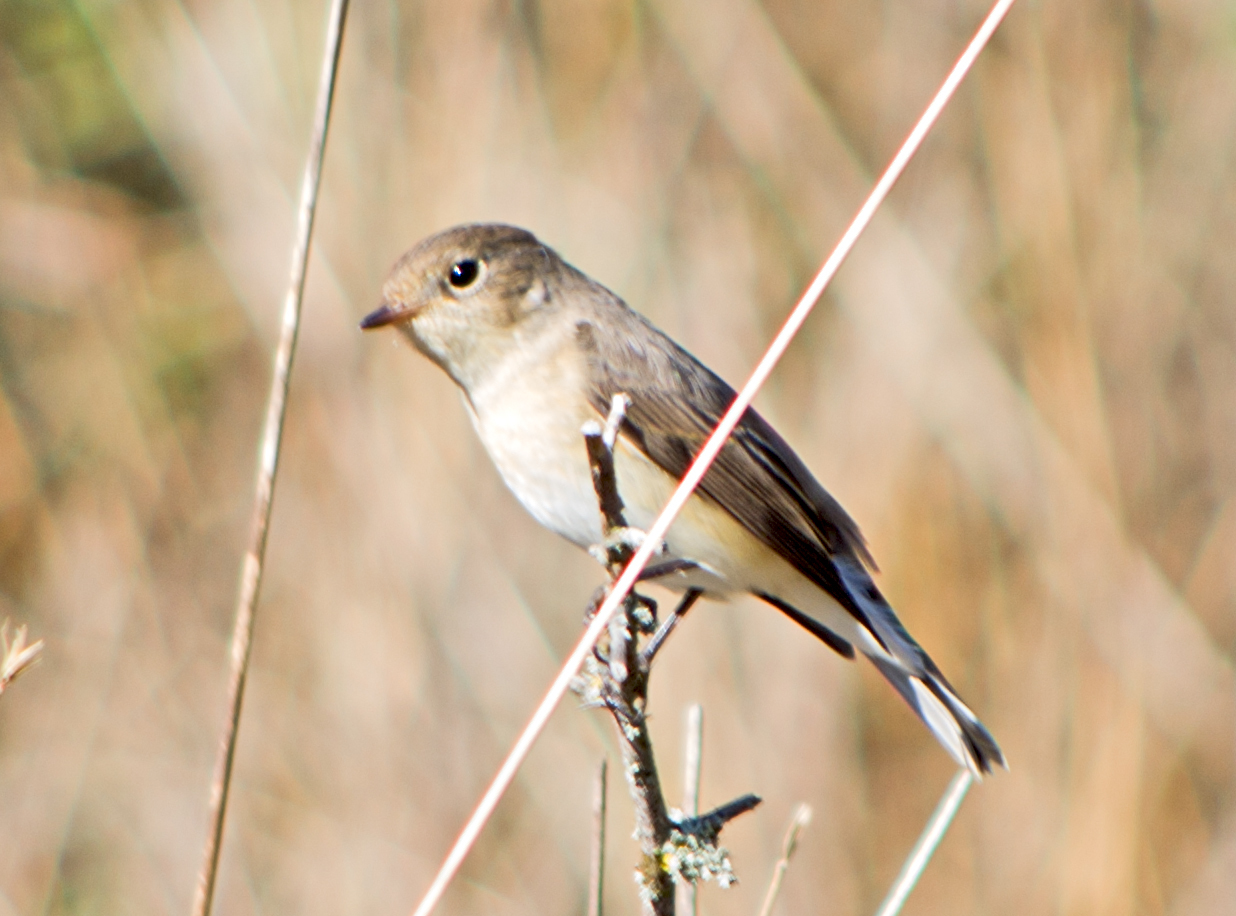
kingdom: Animalia
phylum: Chordata
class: Aves
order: Passeriformes
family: Muscicapidae
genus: Ficedula
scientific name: Ficedula parva
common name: Red-breasted flycatcher
